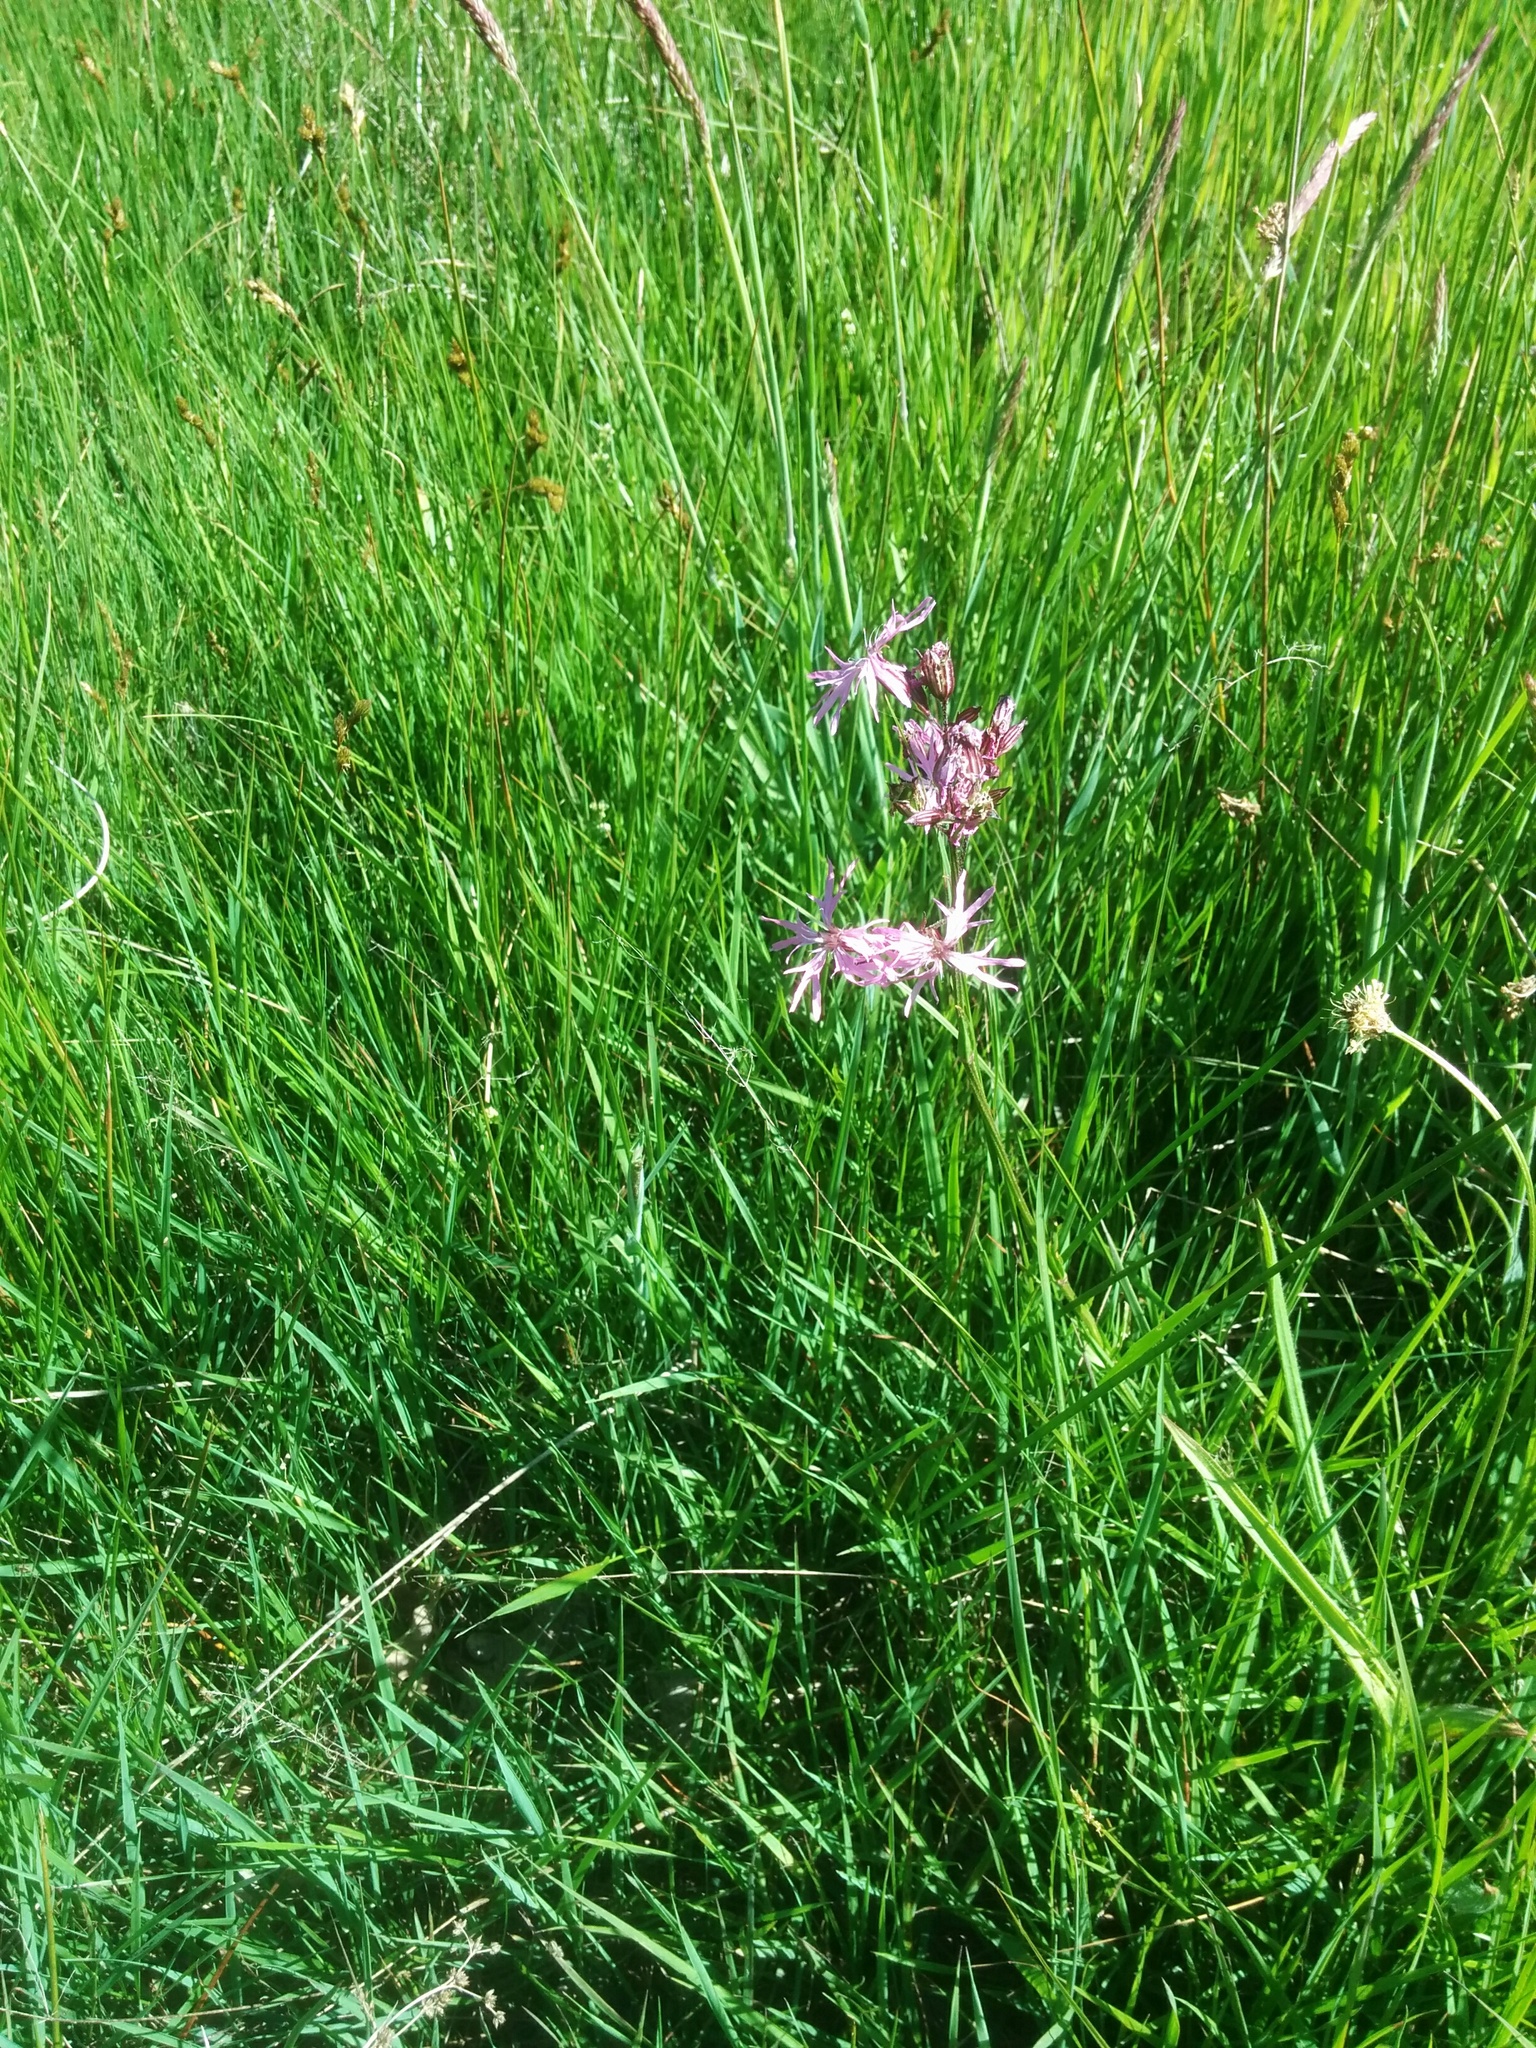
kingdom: Plantae
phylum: Tracheophyta
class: Magnoliopsida
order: Caryophyllales
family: Caryophyllaceae
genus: Silene
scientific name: Silene flos-cuculi
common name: Ragged-robin
